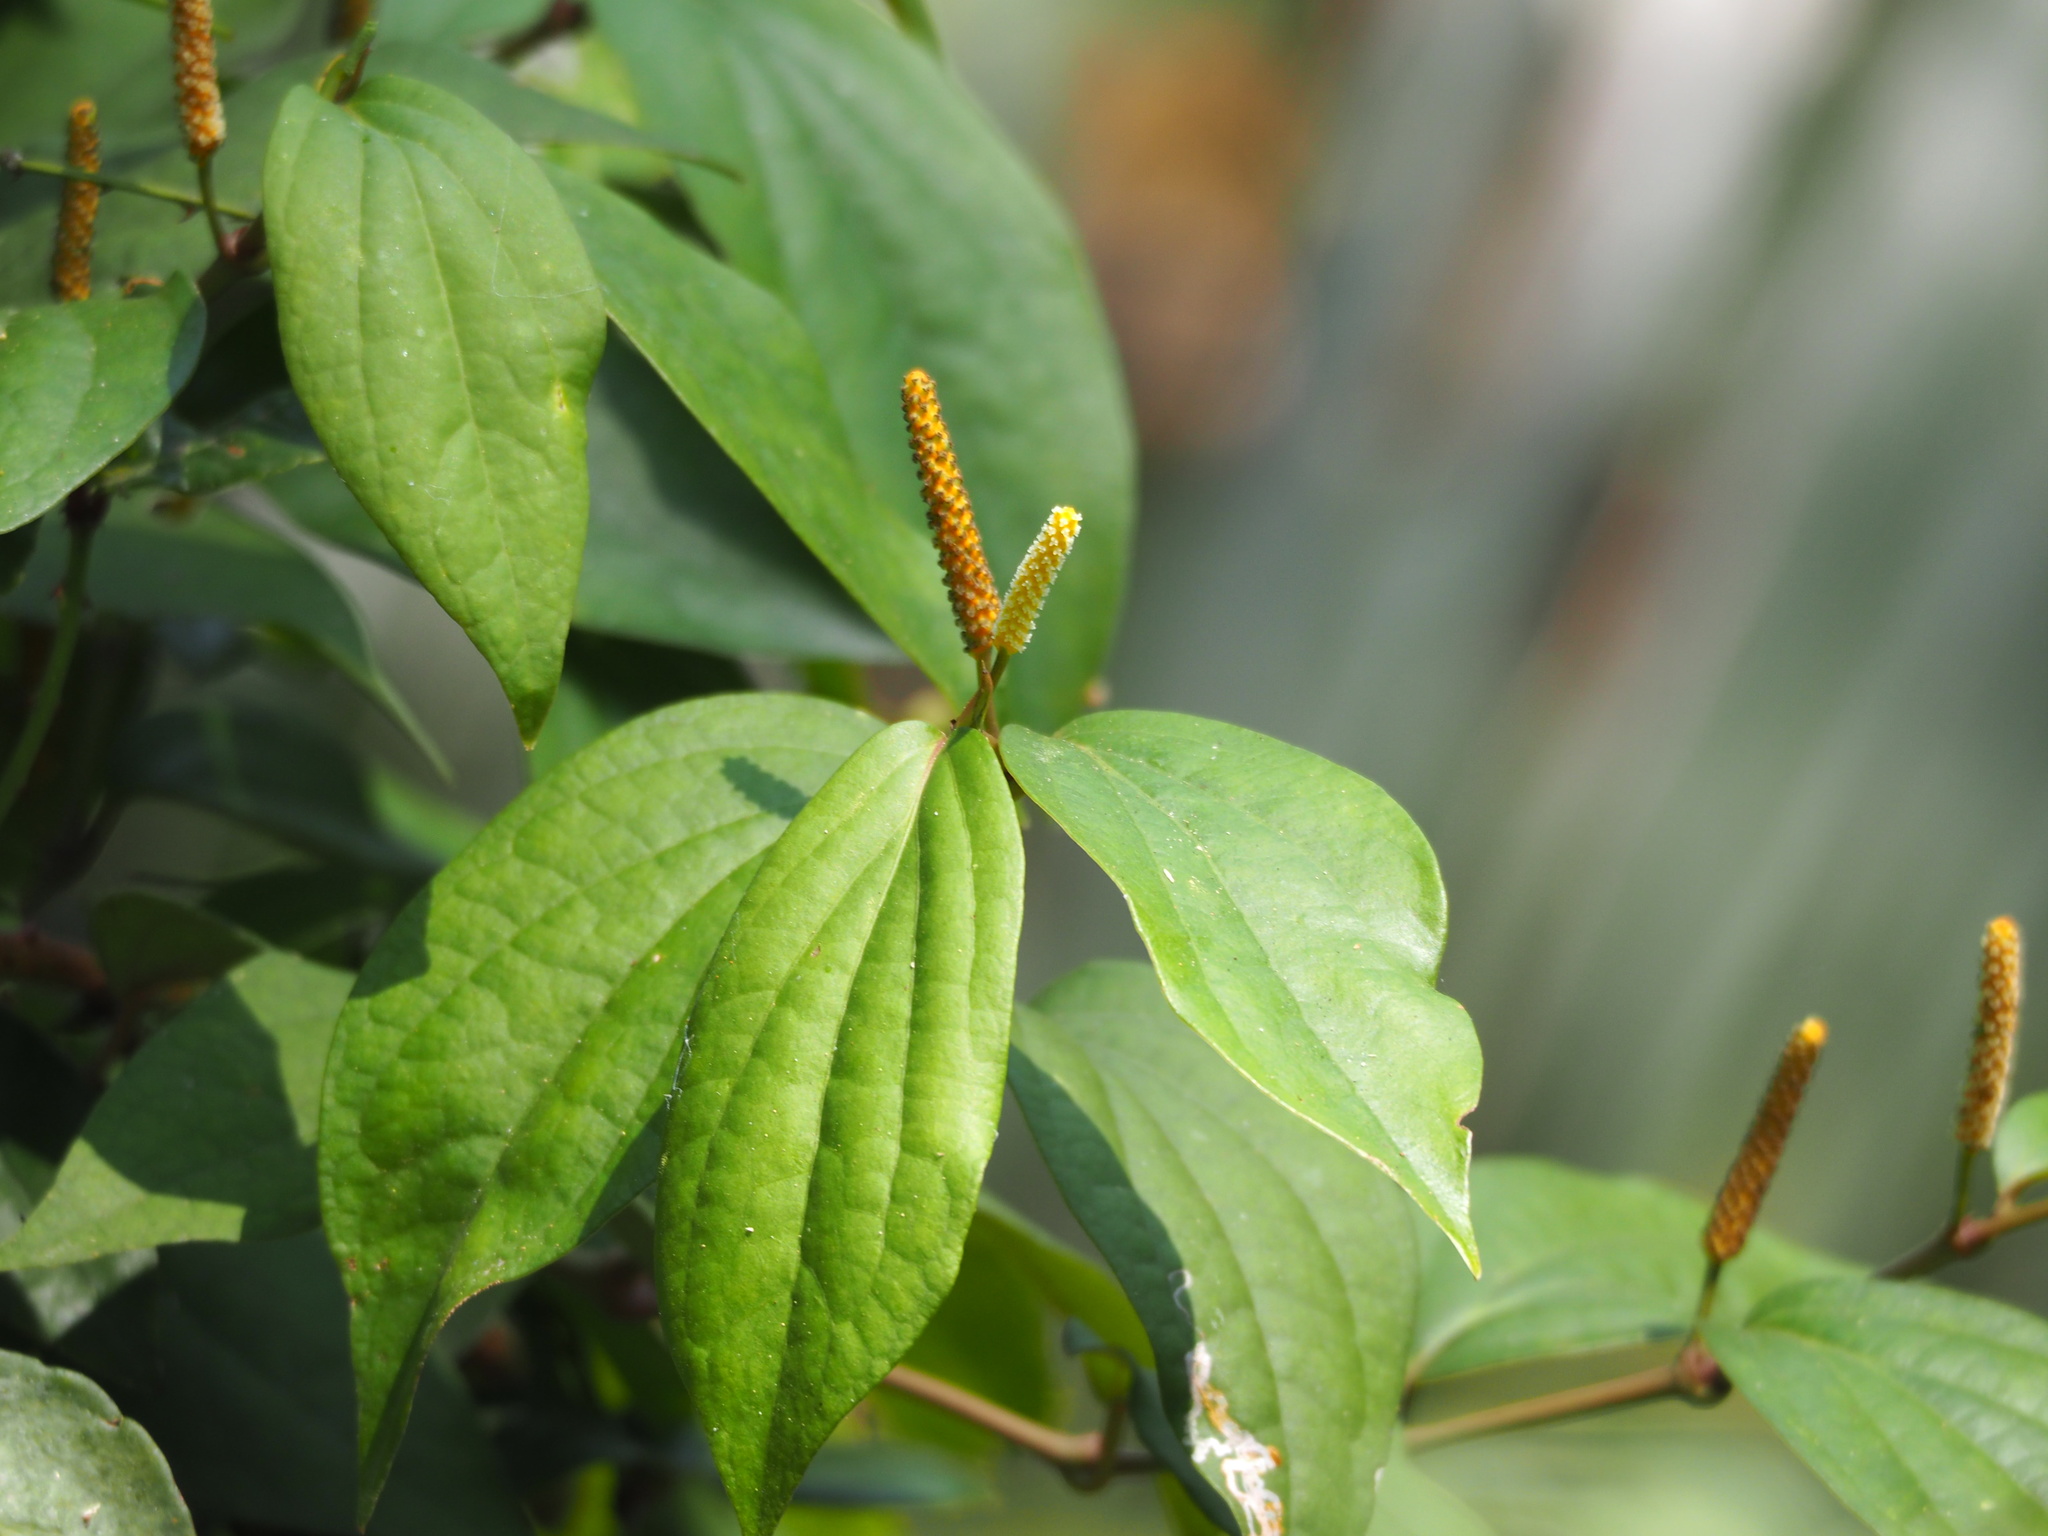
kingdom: Plantae
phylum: Tracheophyta
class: Magnoliopsida
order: Piperales
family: Piperaceae
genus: Piper
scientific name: Piper kadsura
